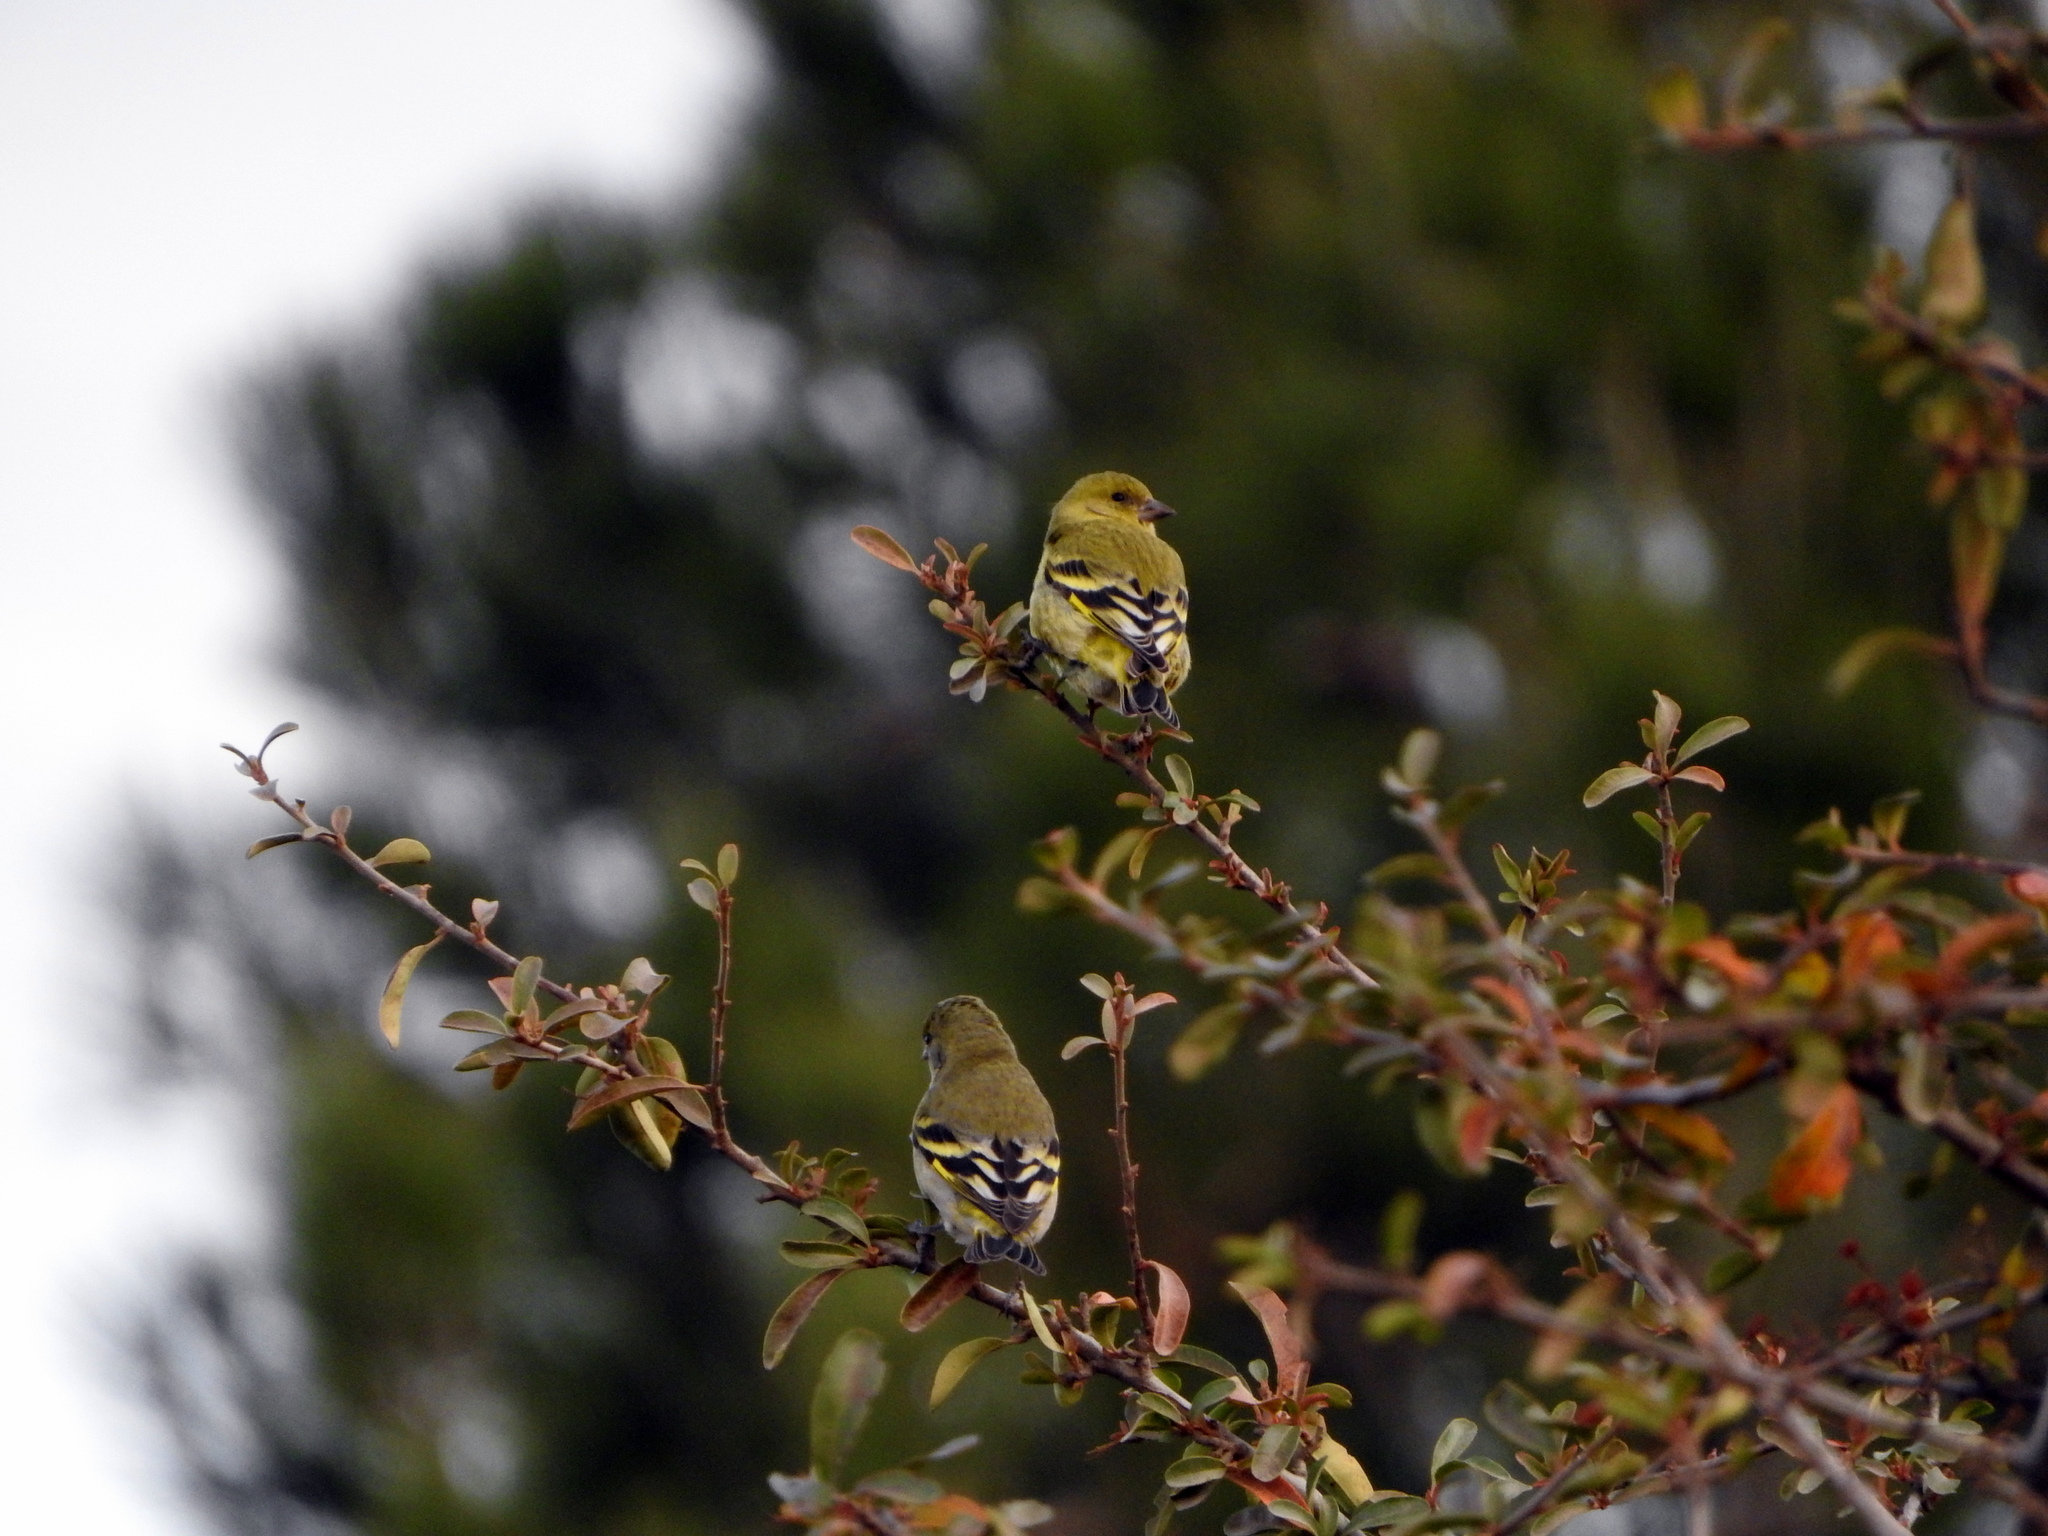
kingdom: Animalia
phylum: Chordata
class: Aves
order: Passeriformes
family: Fringillidae
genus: Spinus
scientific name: Spinus magellanicus
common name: Hooded siskin
